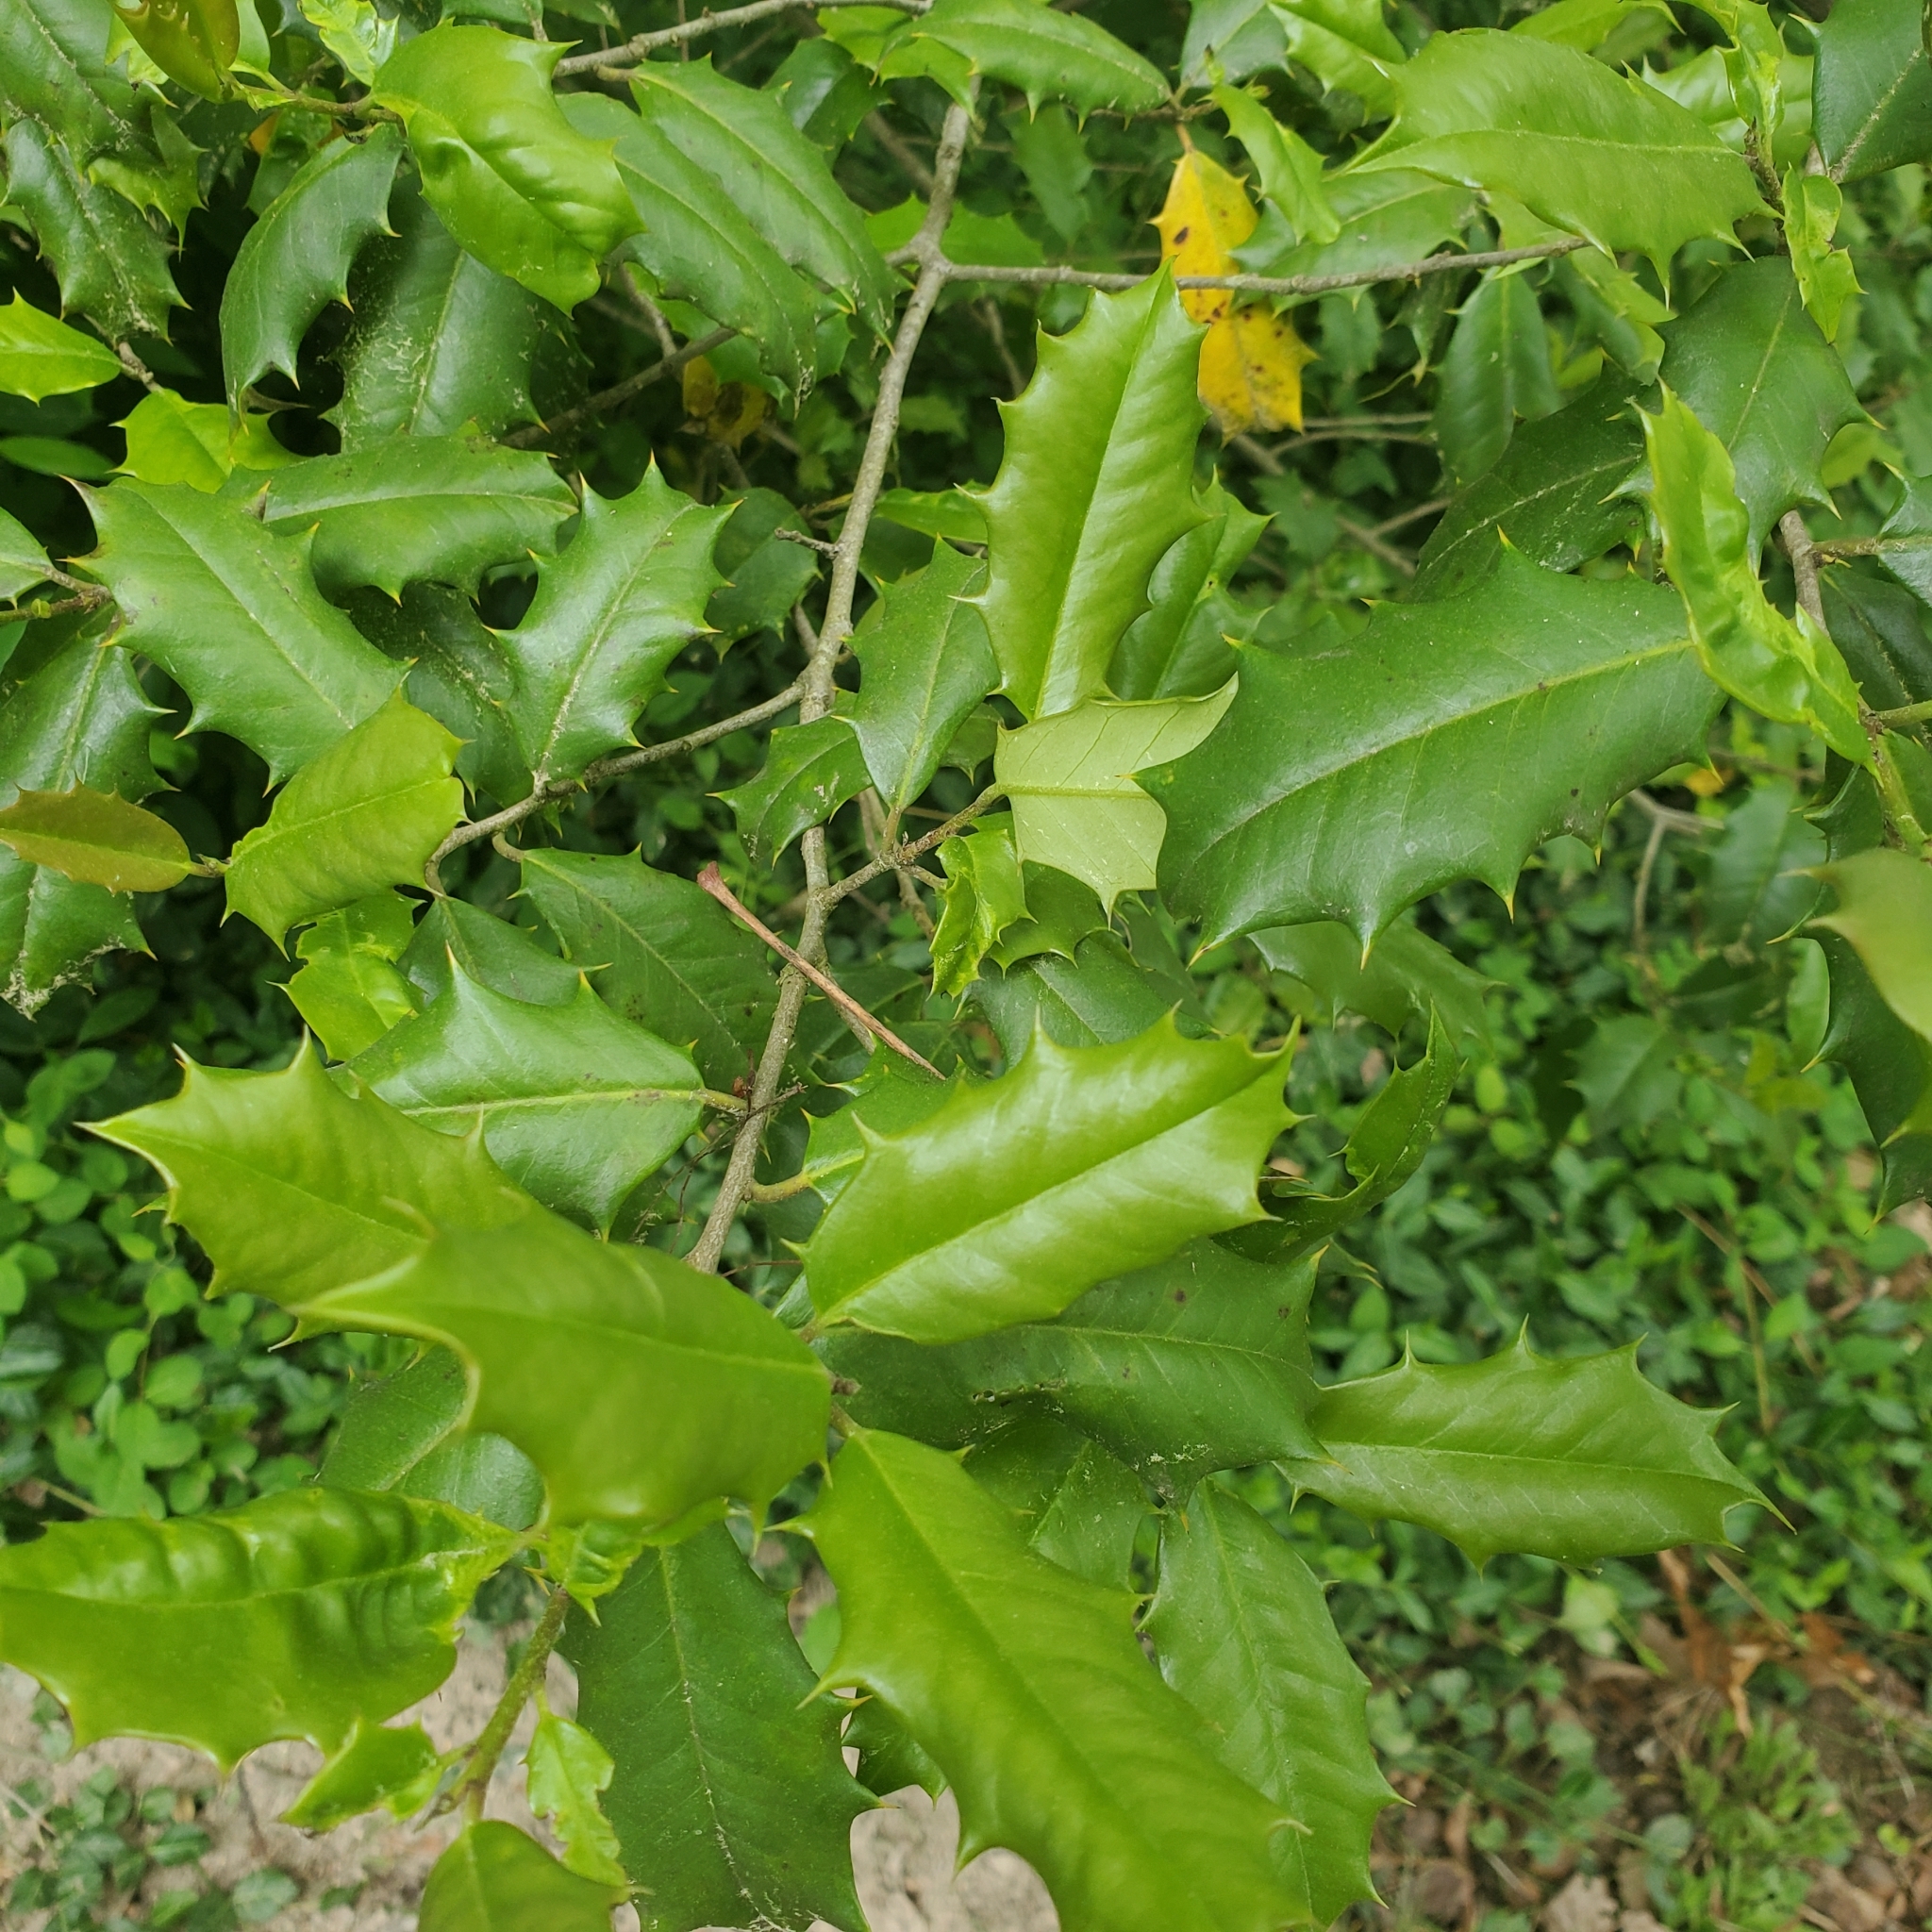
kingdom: Plantae
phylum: Tracheophyta
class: Magnoliopsida
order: Aquifoliales
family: Aquifoliaceae
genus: Ilex
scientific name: Ilex opaca
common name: American holly
